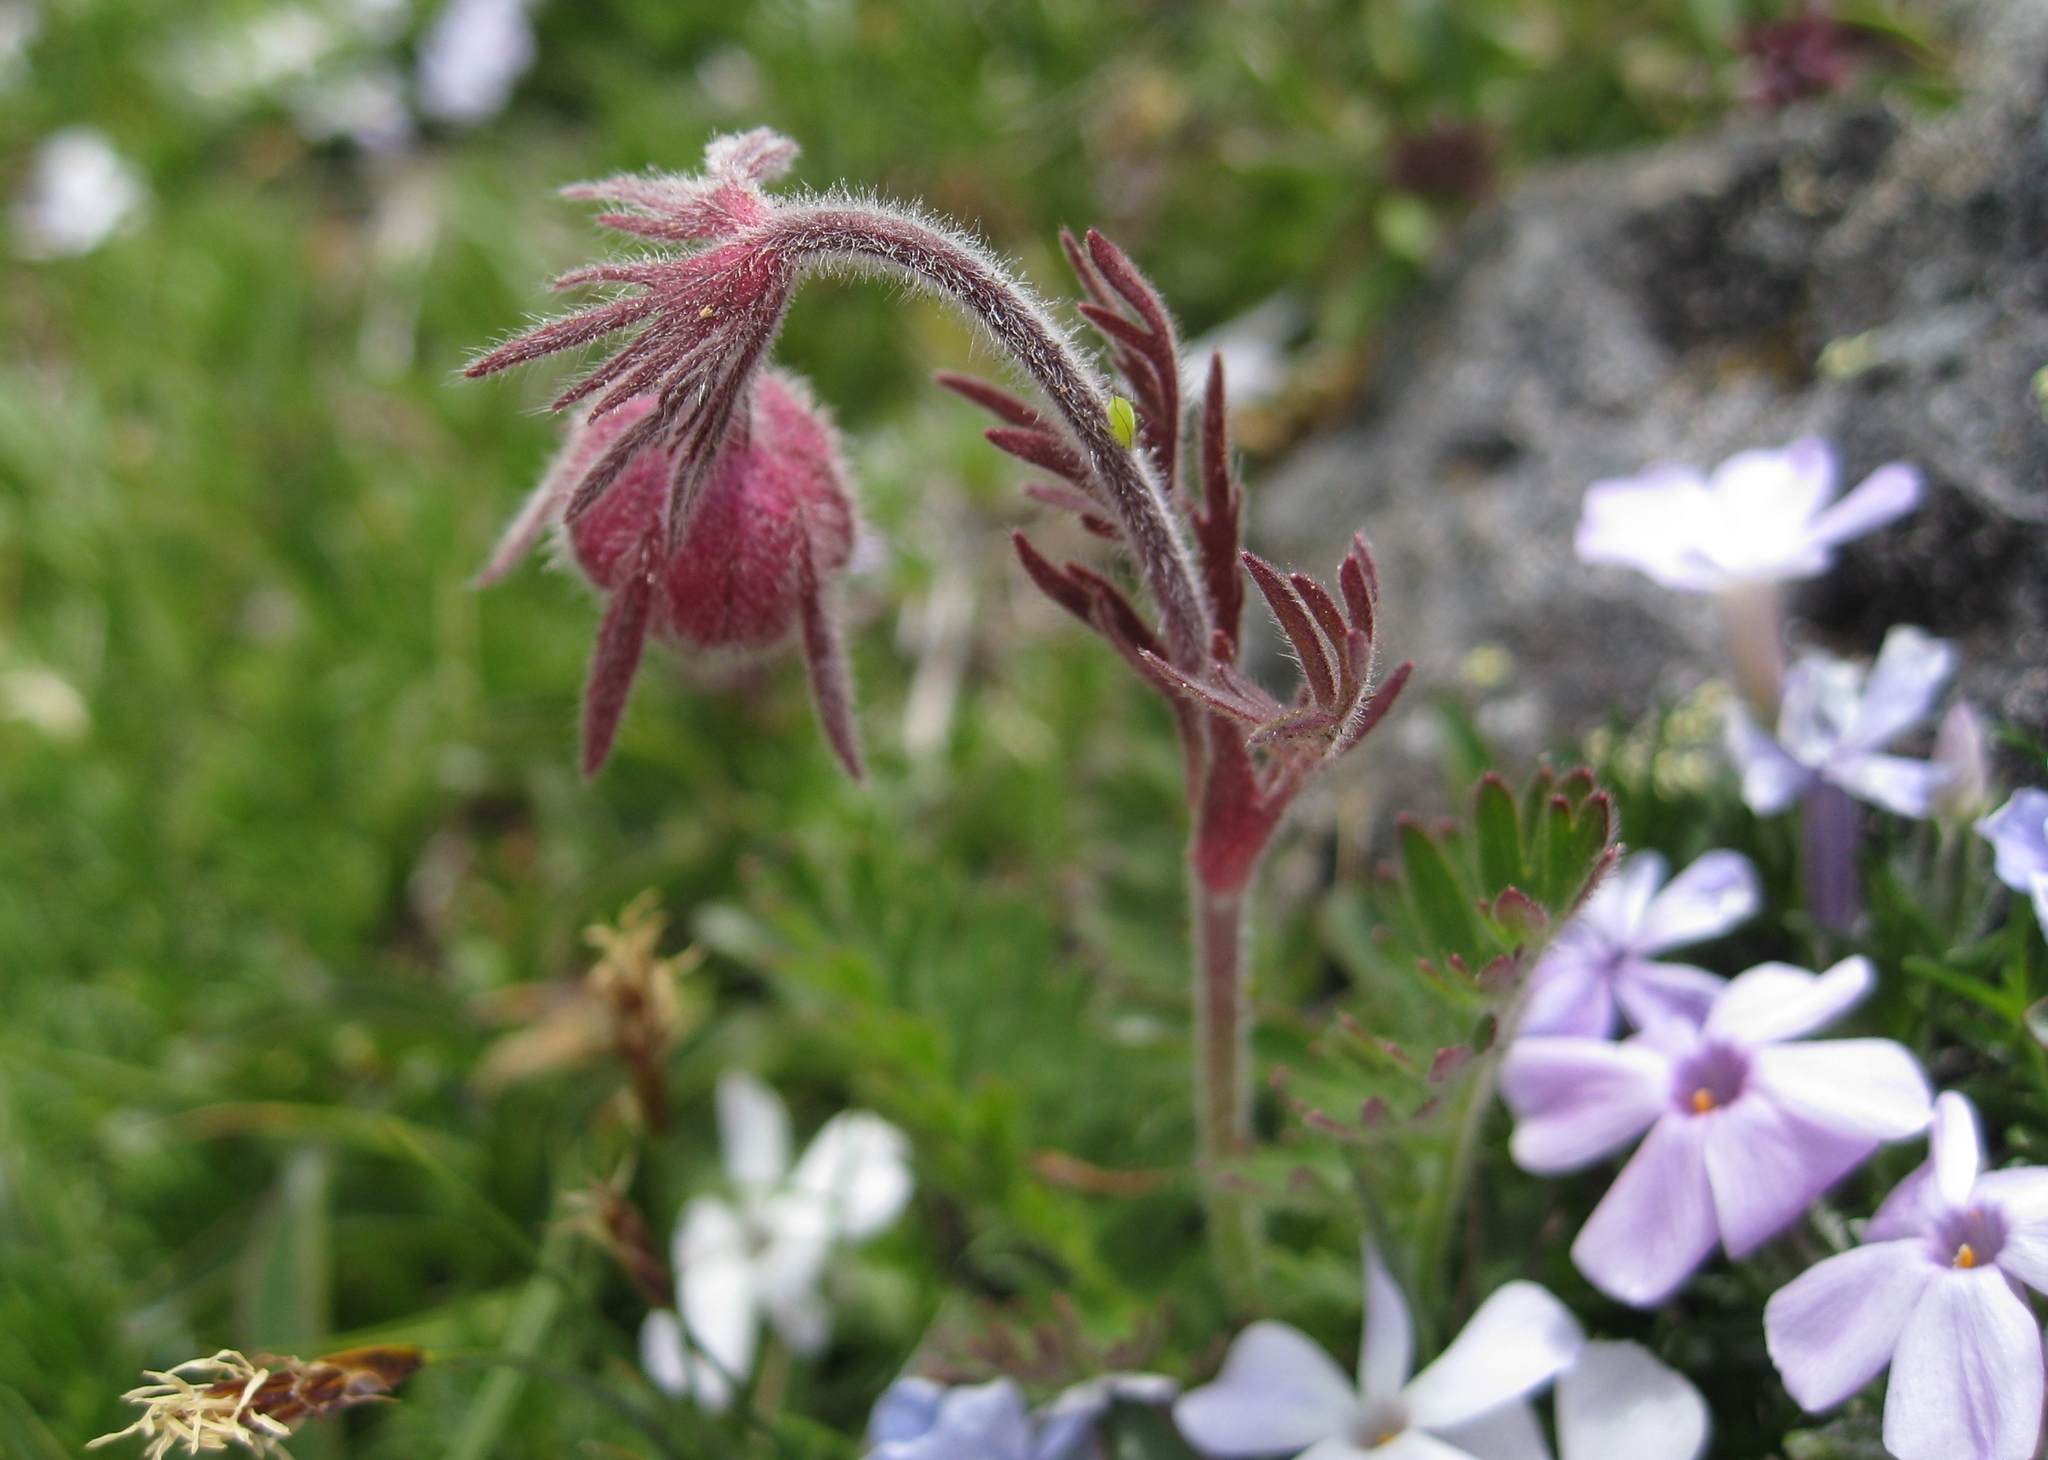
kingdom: Plantae
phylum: Tracheophyta
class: Magnoliopsida
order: Rosales
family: Rosaceae
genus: Geum
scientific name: Geum triflorum
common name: Old man's whiskers
